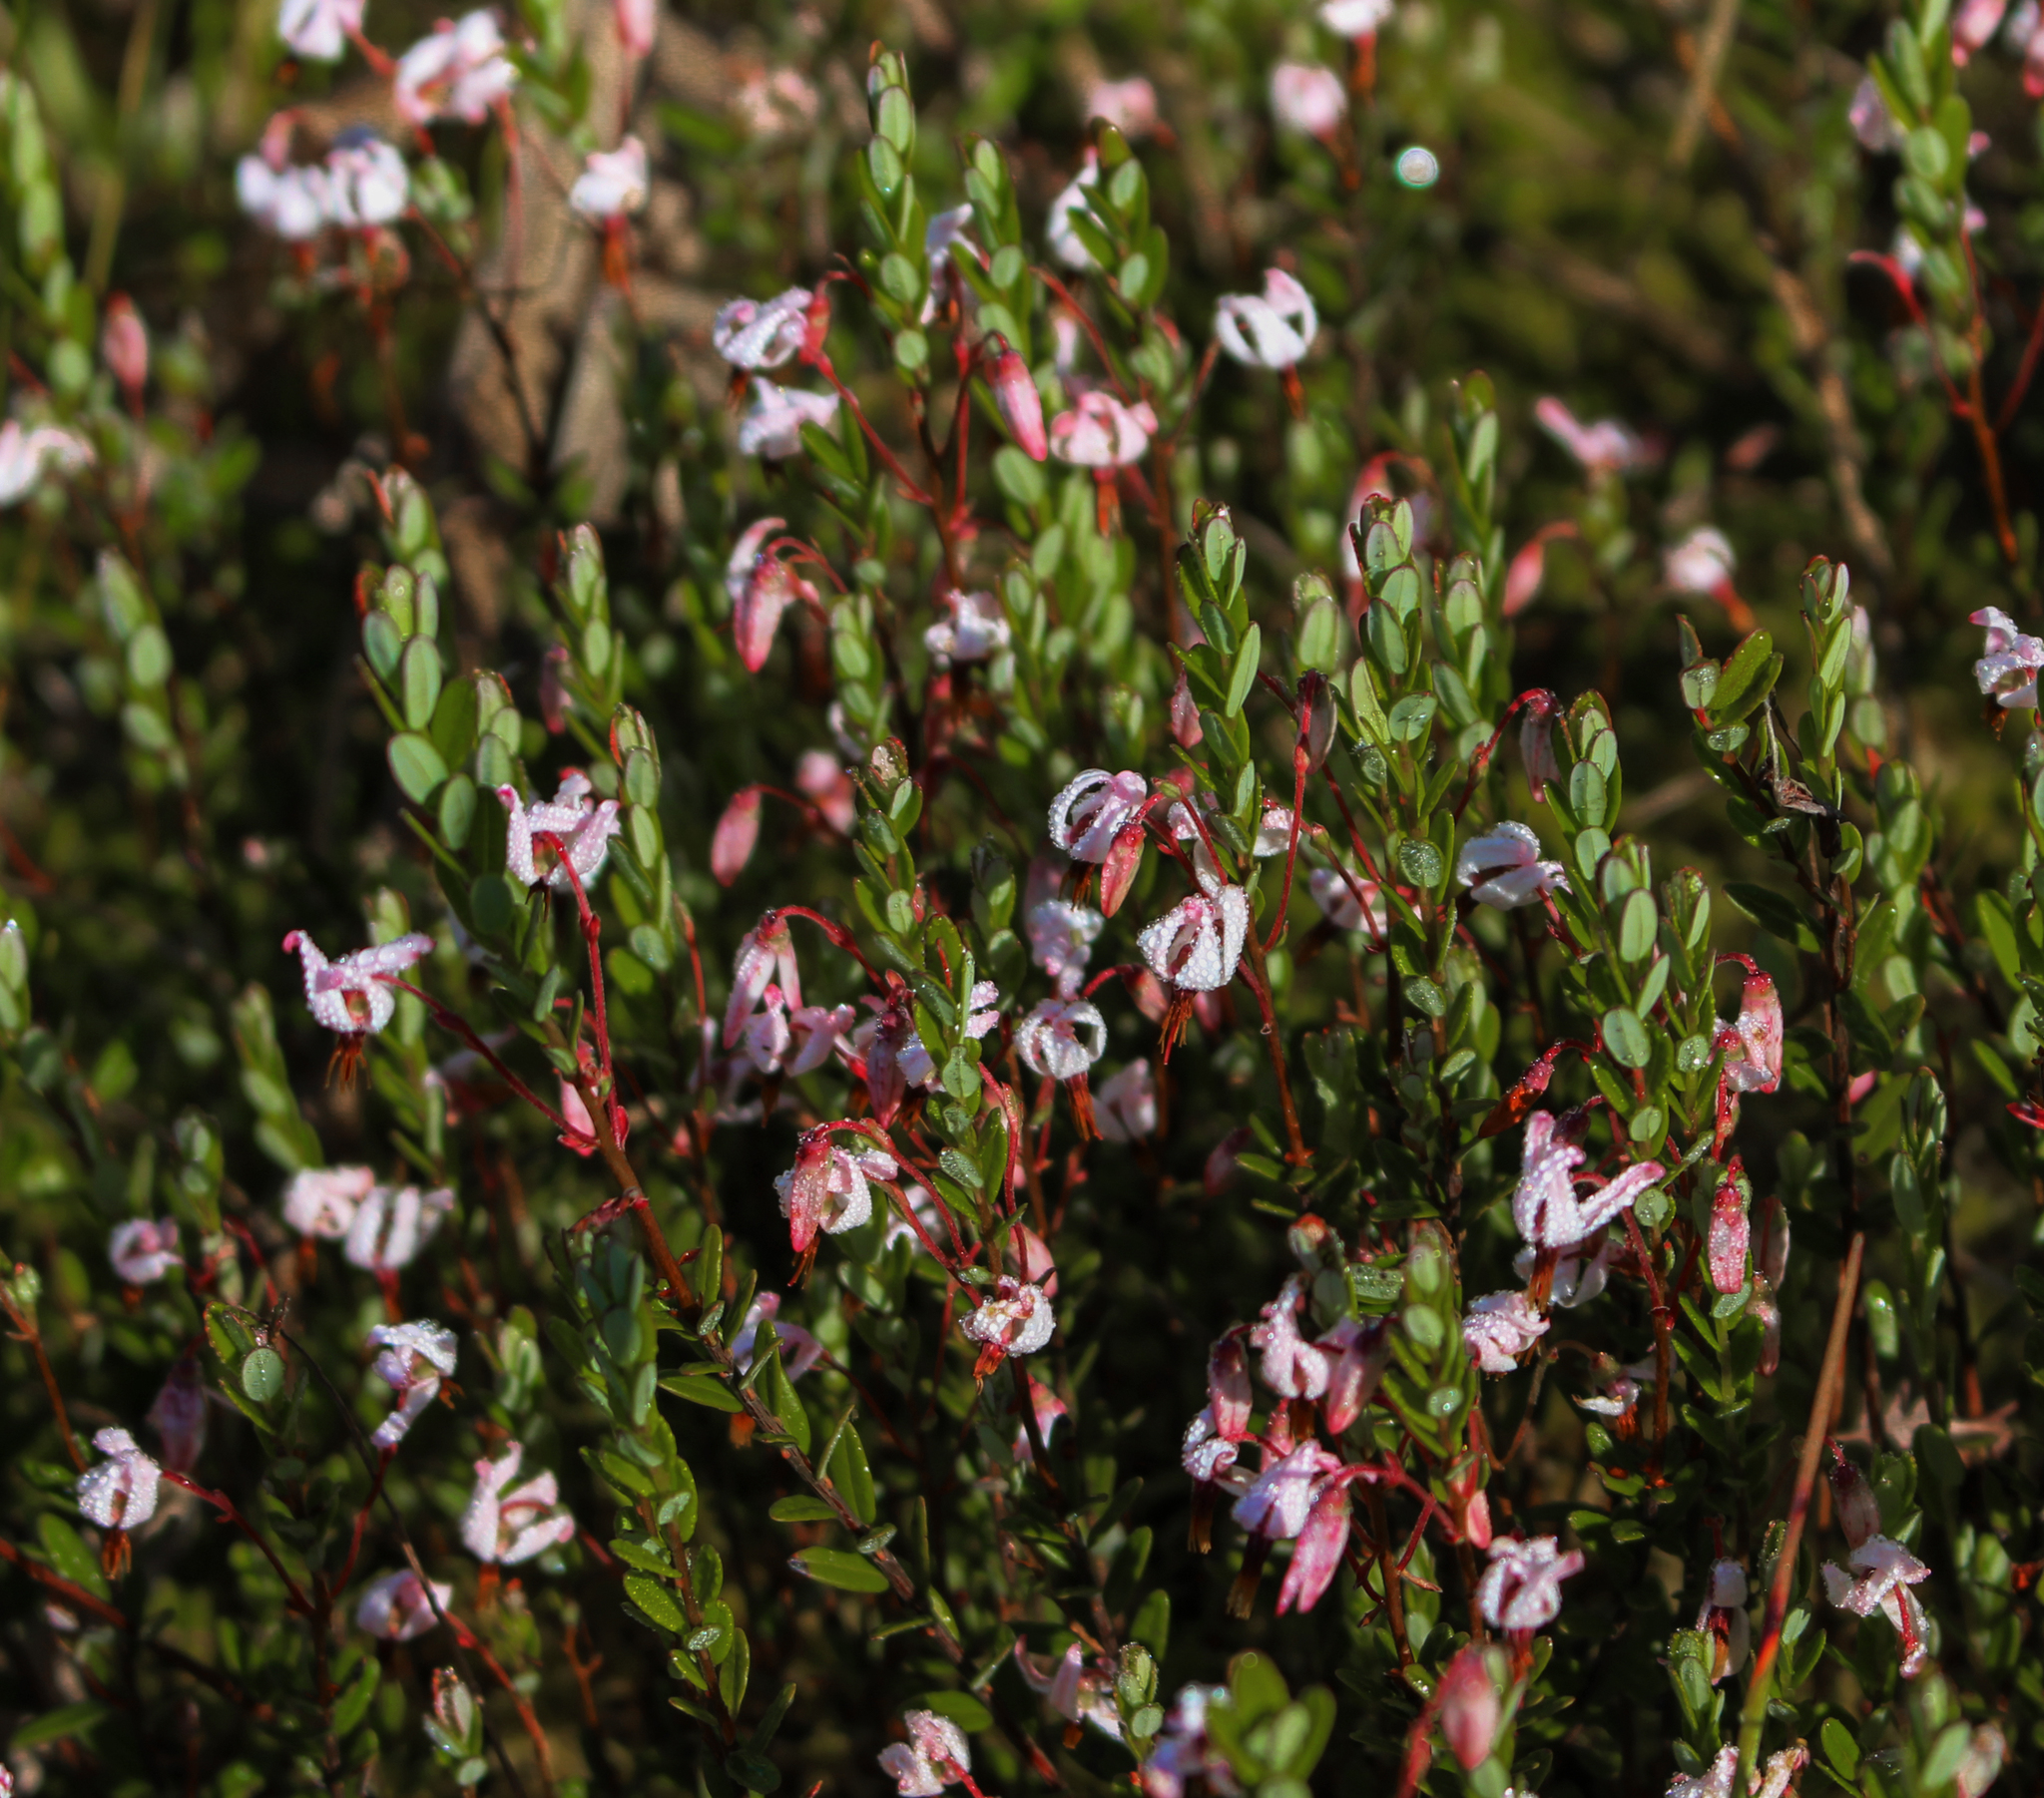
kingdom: Plantae
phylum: Tracheophyta
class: Magnoliopsida
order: Ericales
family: Ericaceae
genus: Vaccinium
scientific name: Vaccinium oxycoccos
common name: Cranberry
